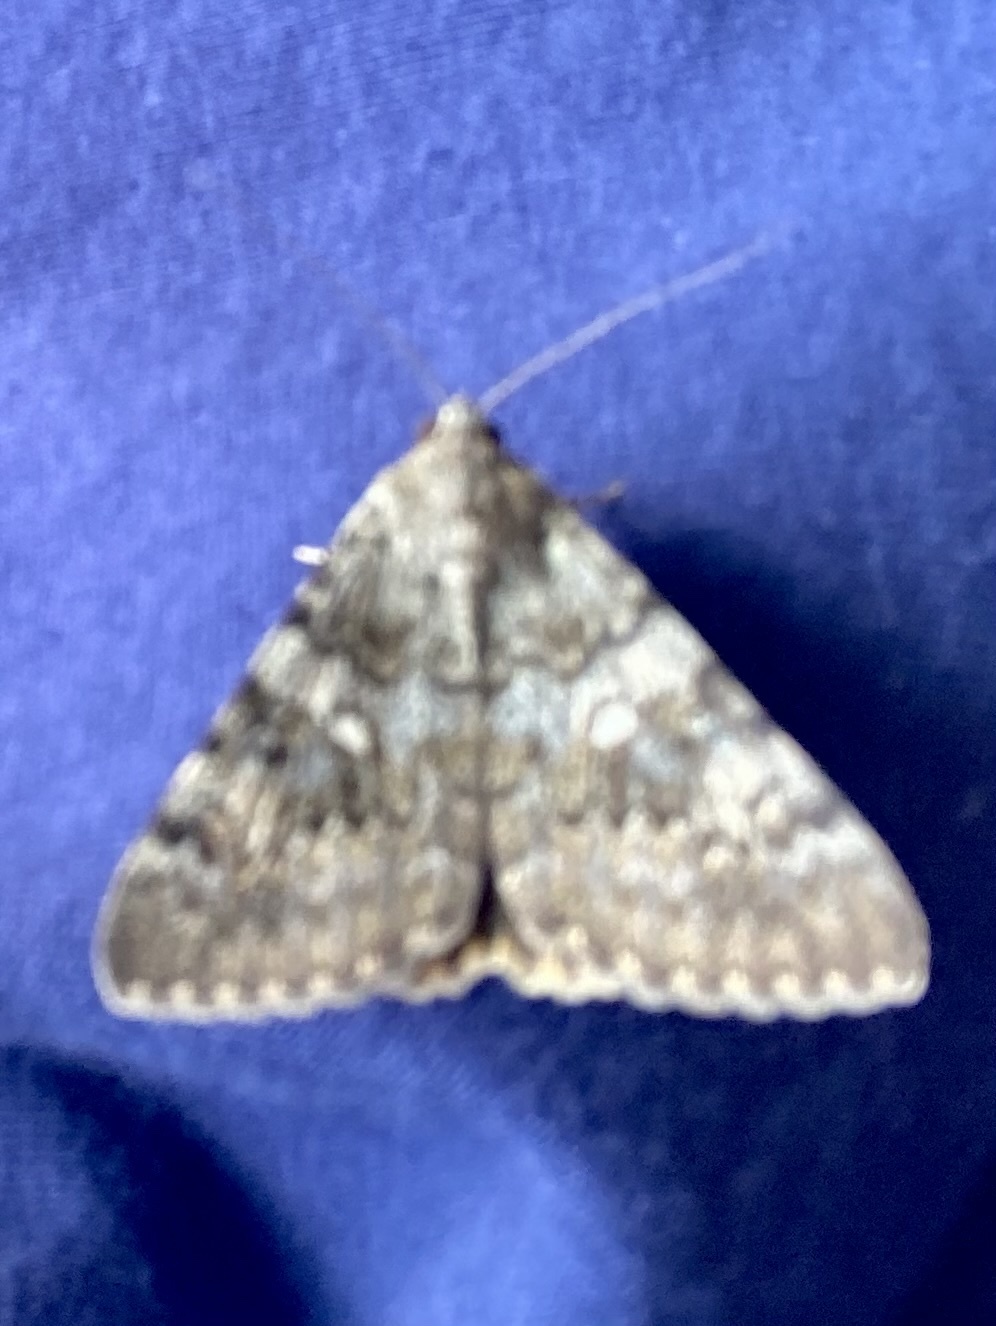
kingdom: Animalia
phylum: Arthropoda
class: Insecta
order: Lepidoptera
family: Erebidae
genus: Catocala
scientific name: Catocala nymphaea
